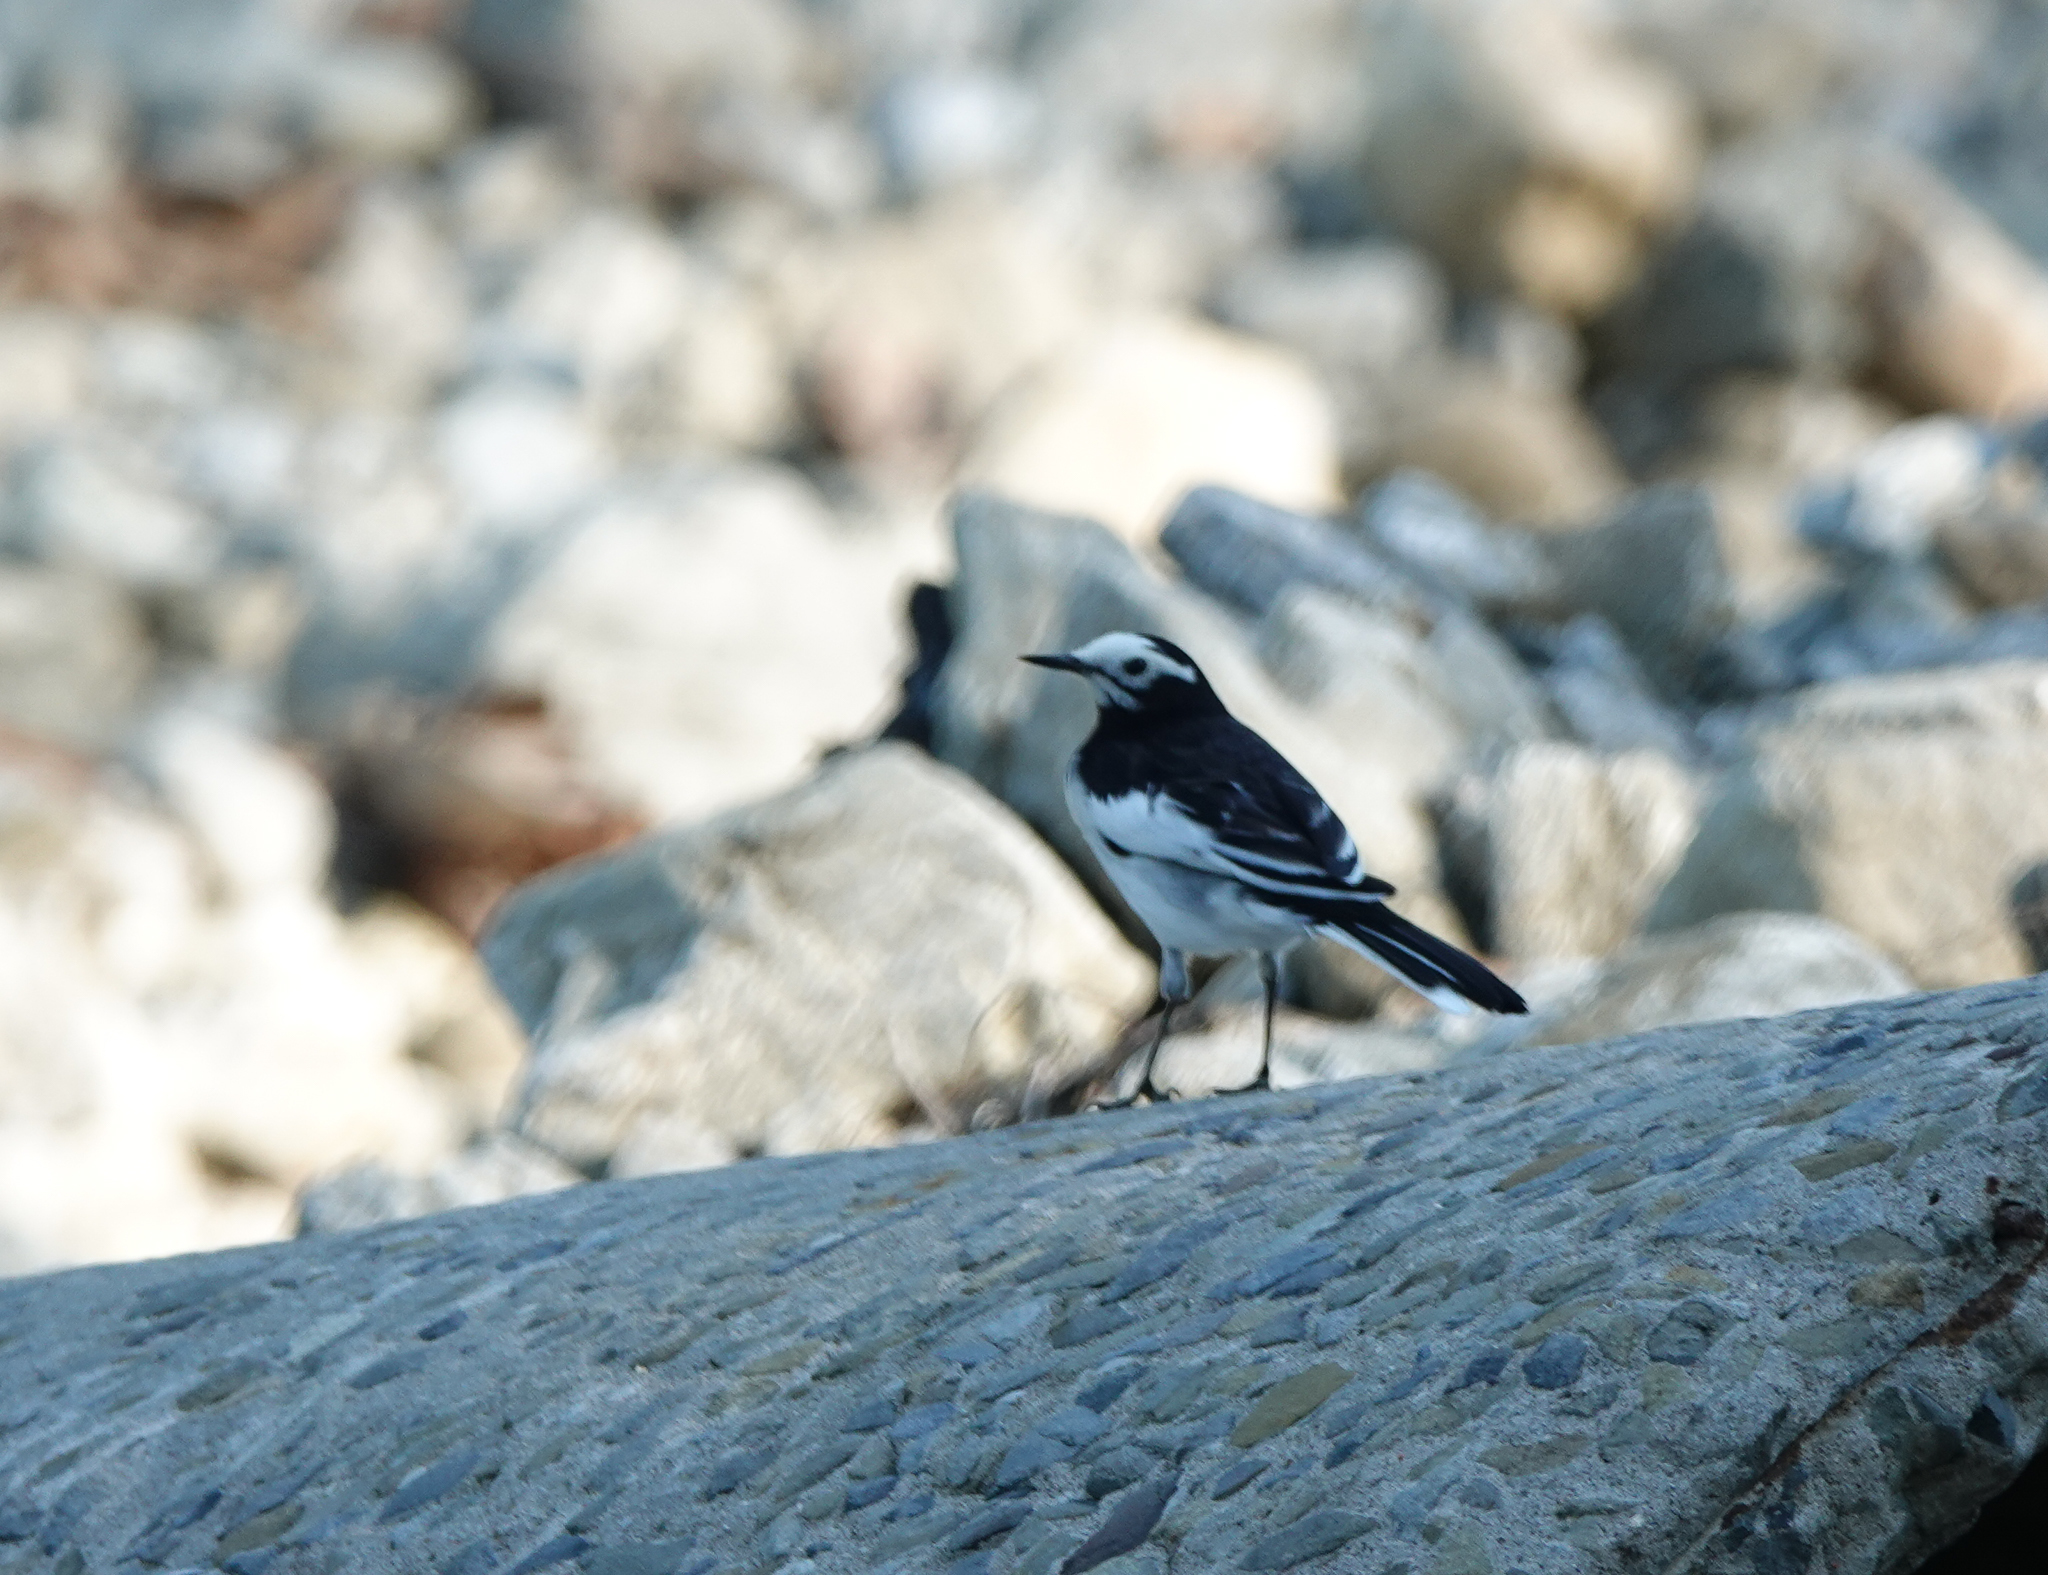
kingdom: Animalia
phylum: Chordata
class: Aves
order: Passeriformes
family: Motacillidae
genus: Motacilla
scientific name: Motacilla alba
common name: White wagtail
